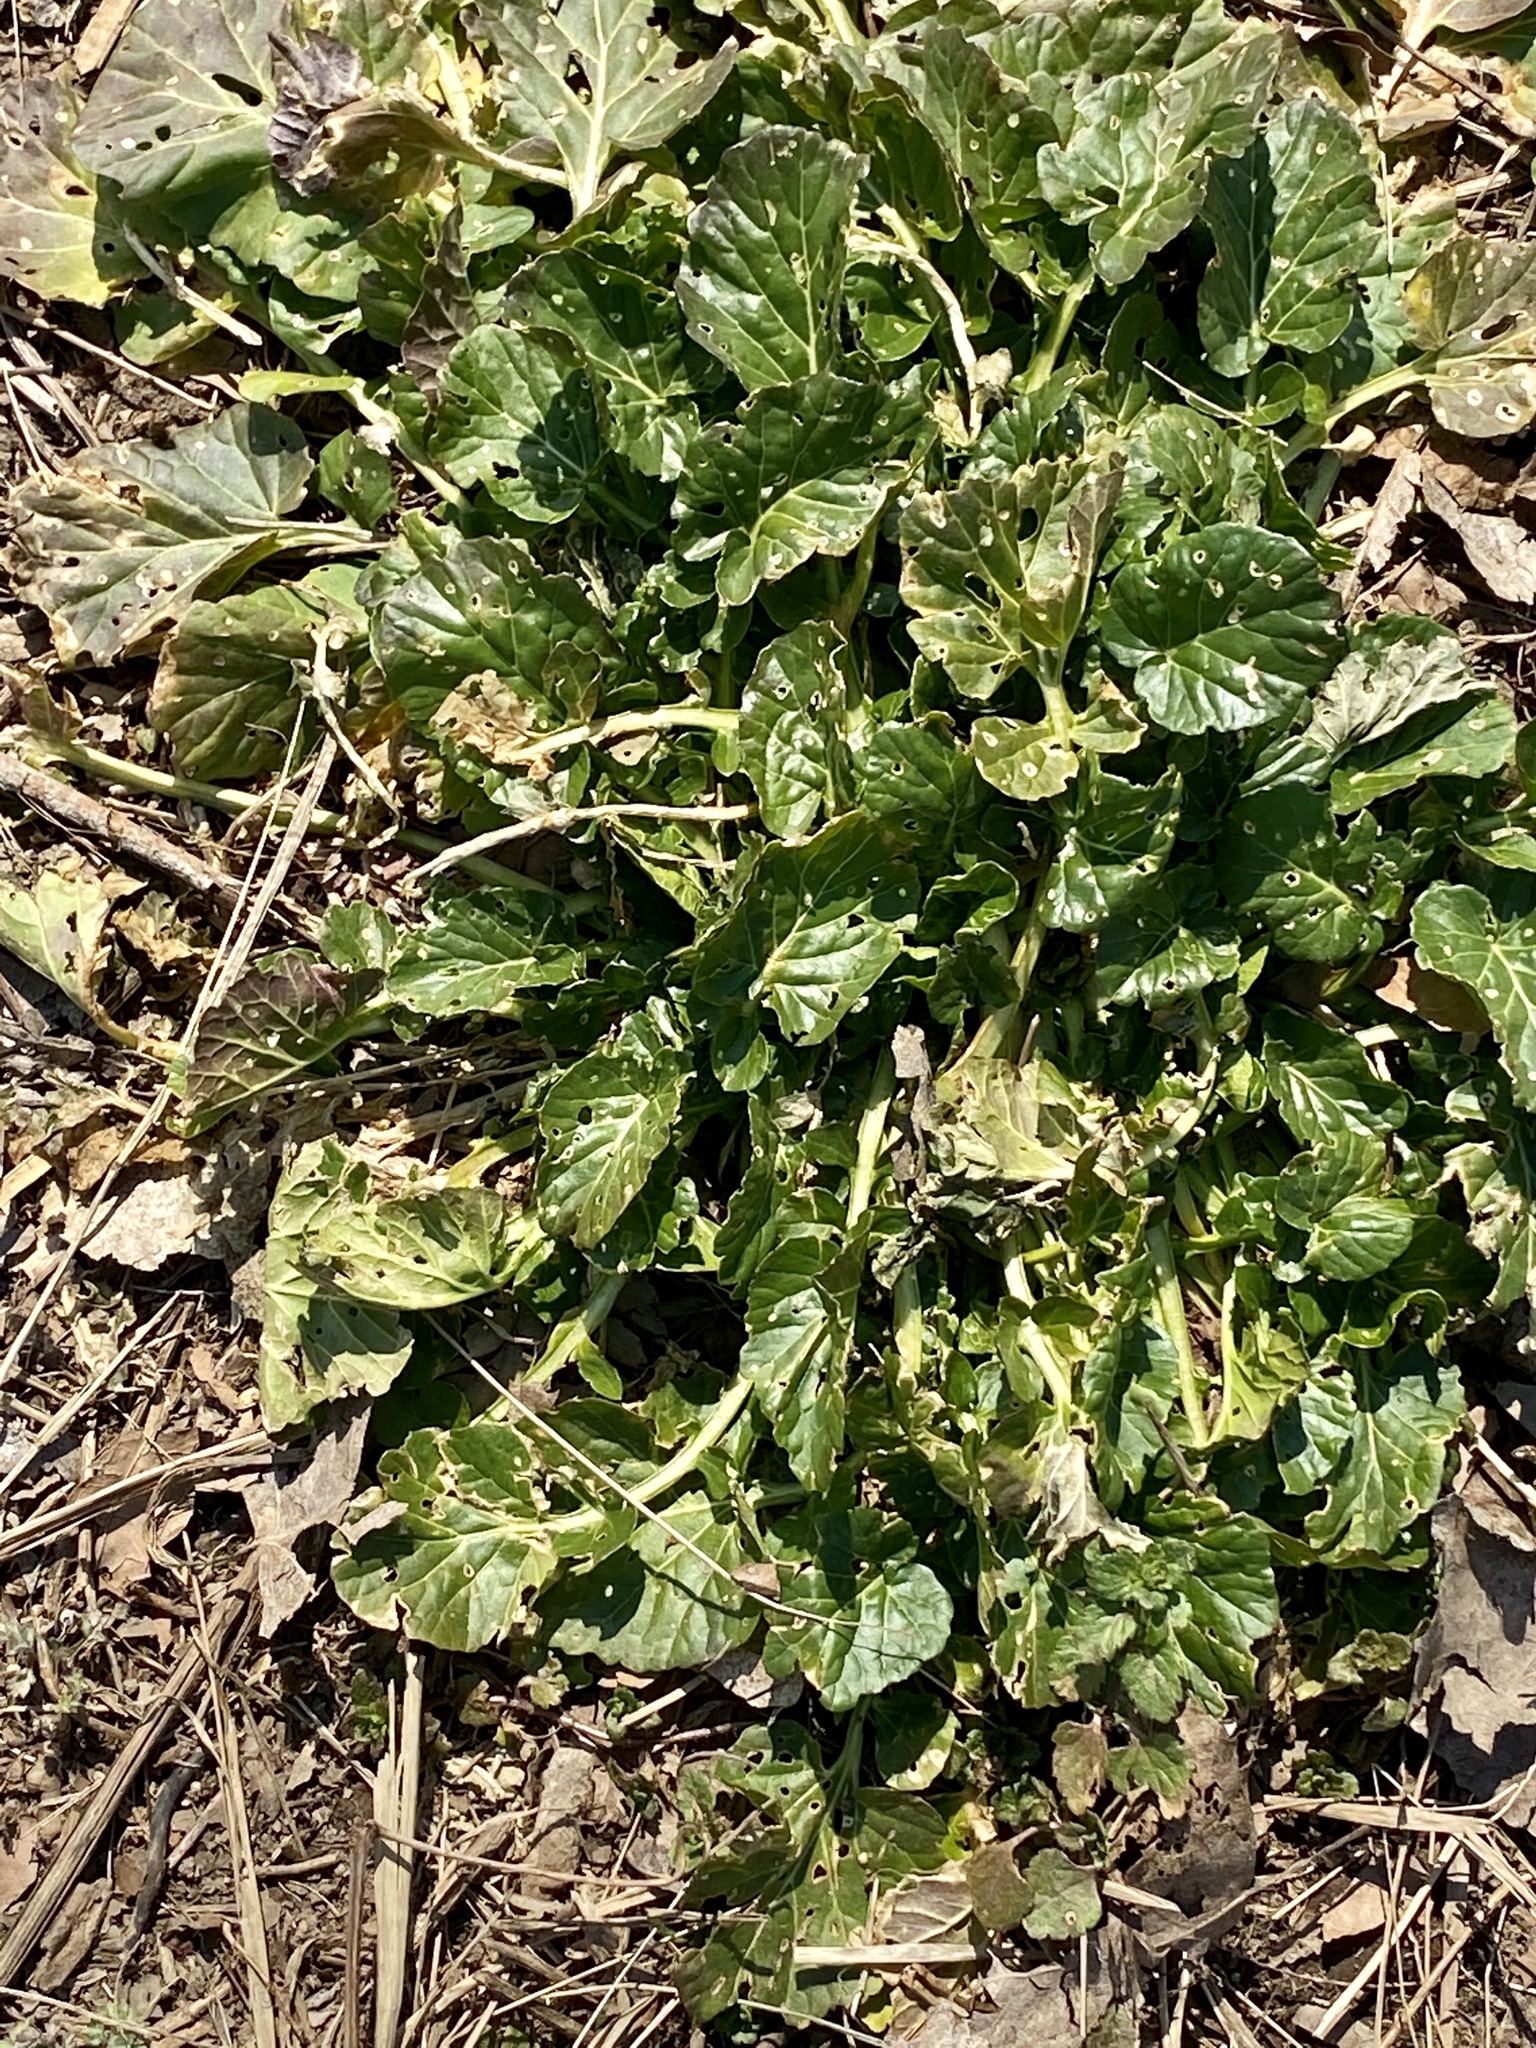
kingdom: Plantae
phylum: Tracheophyta
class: Magnoliopsida
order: Brassicales
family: Brassicaceae
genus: Barbarea
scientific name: Barbarea vulgaris
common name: Cressy-greens
